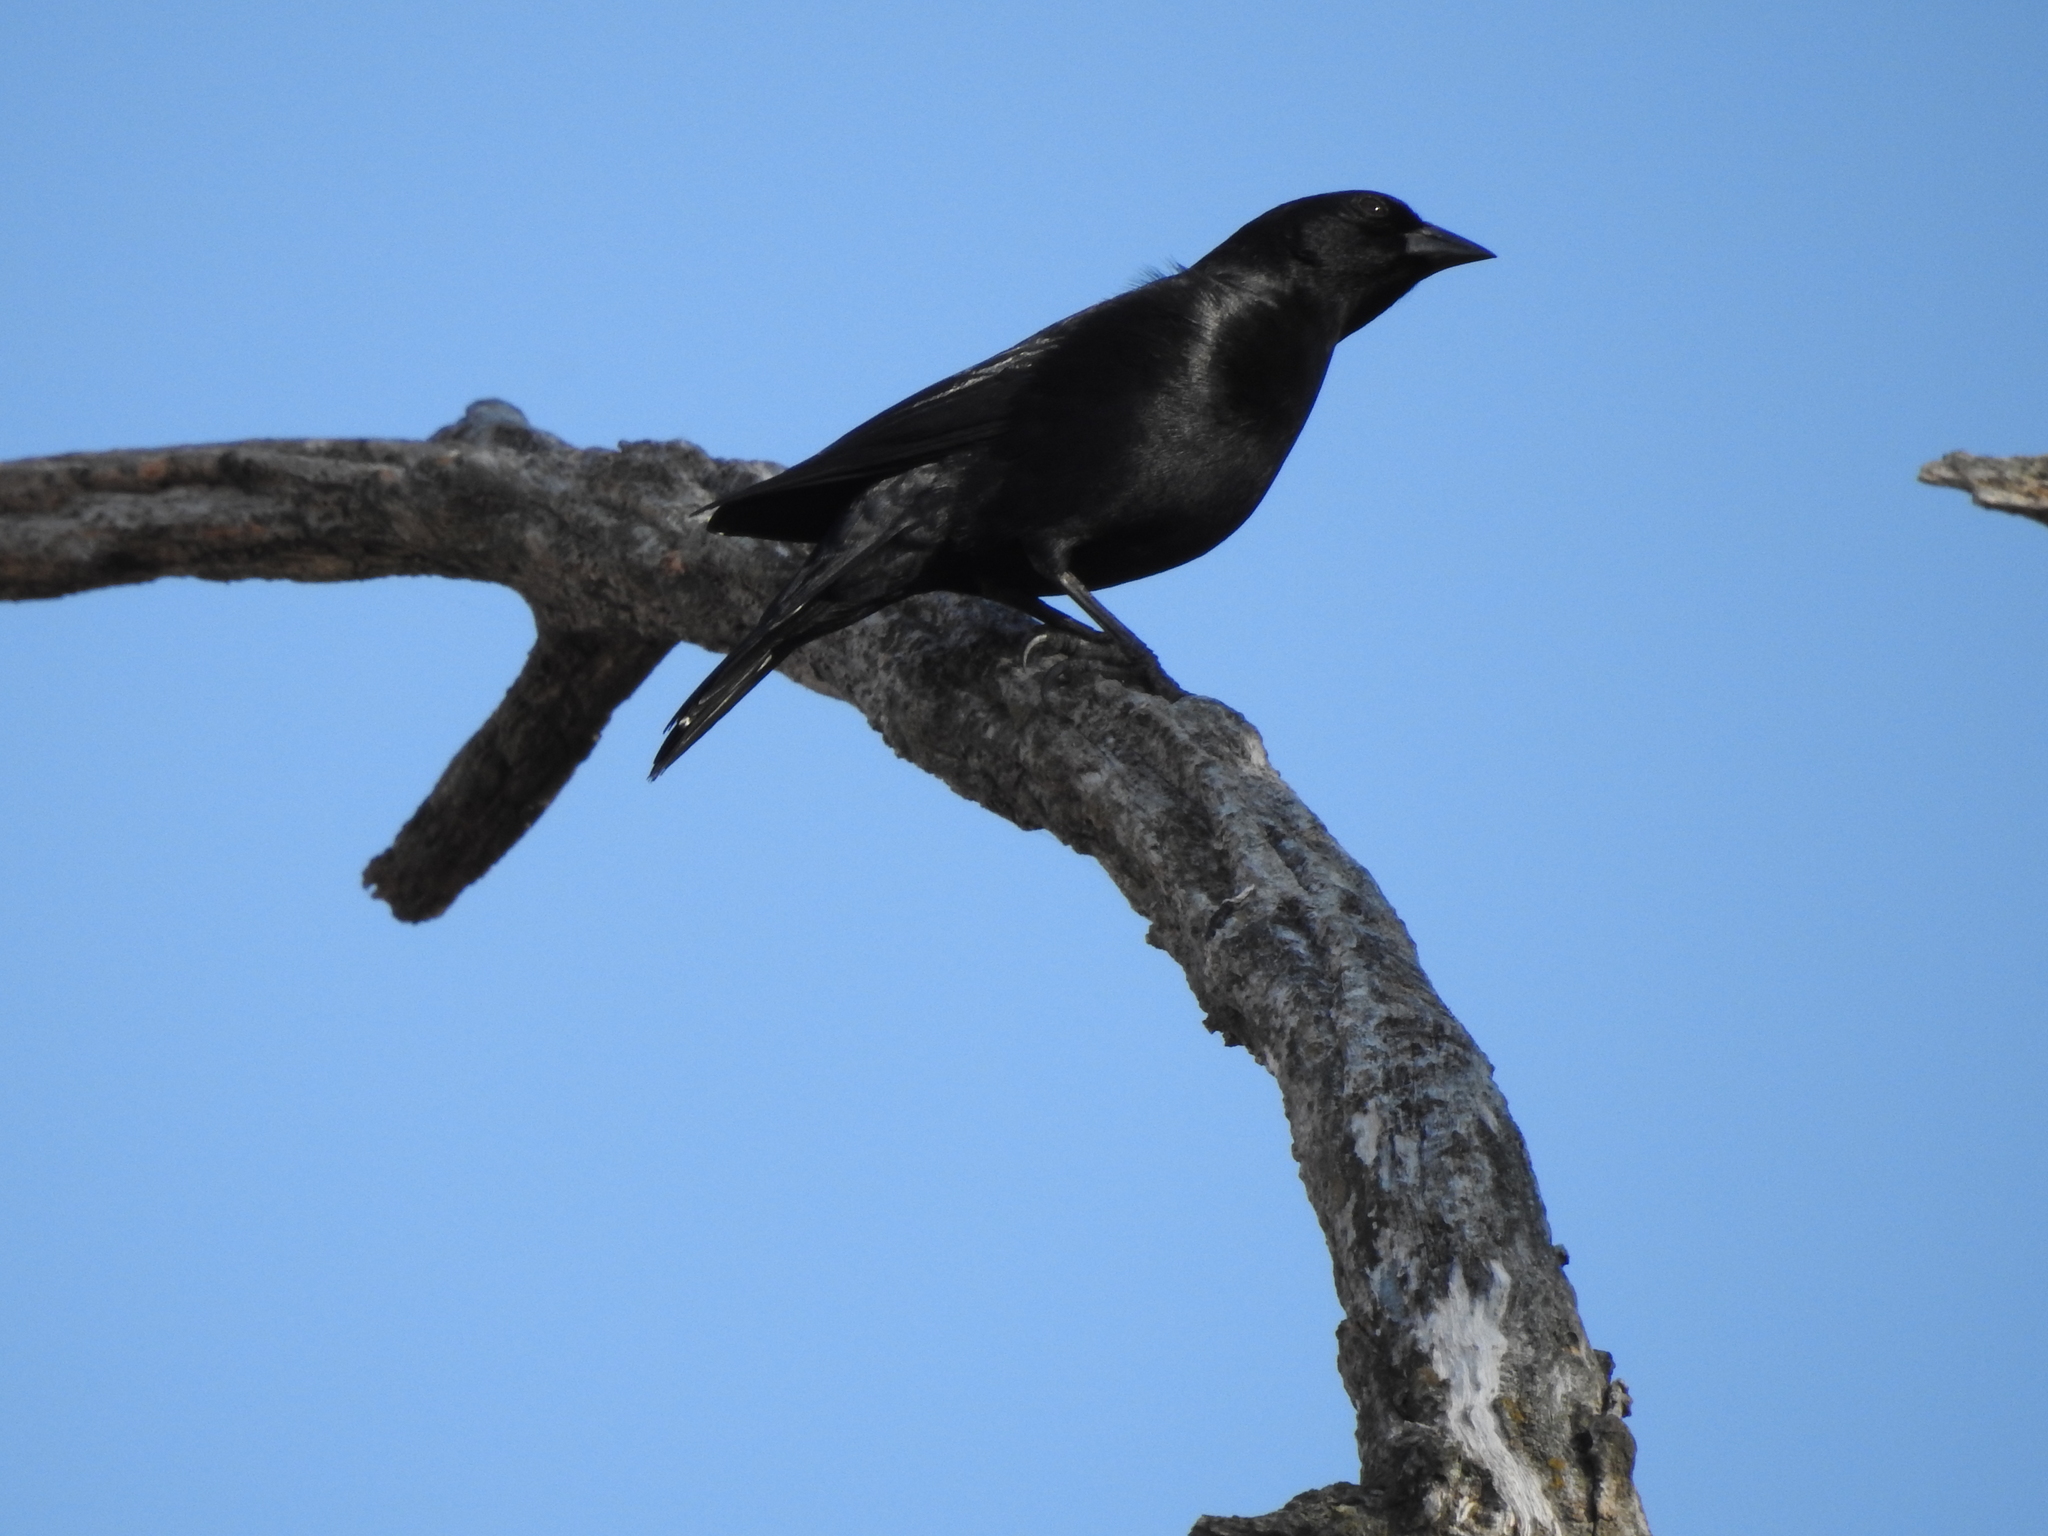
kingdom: Animalia
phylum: Chordata
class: Aves
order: Passeriformes
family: Icteridae
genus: Molothrus
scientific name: Molothrus bonariensis
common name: Shiny cowbird
